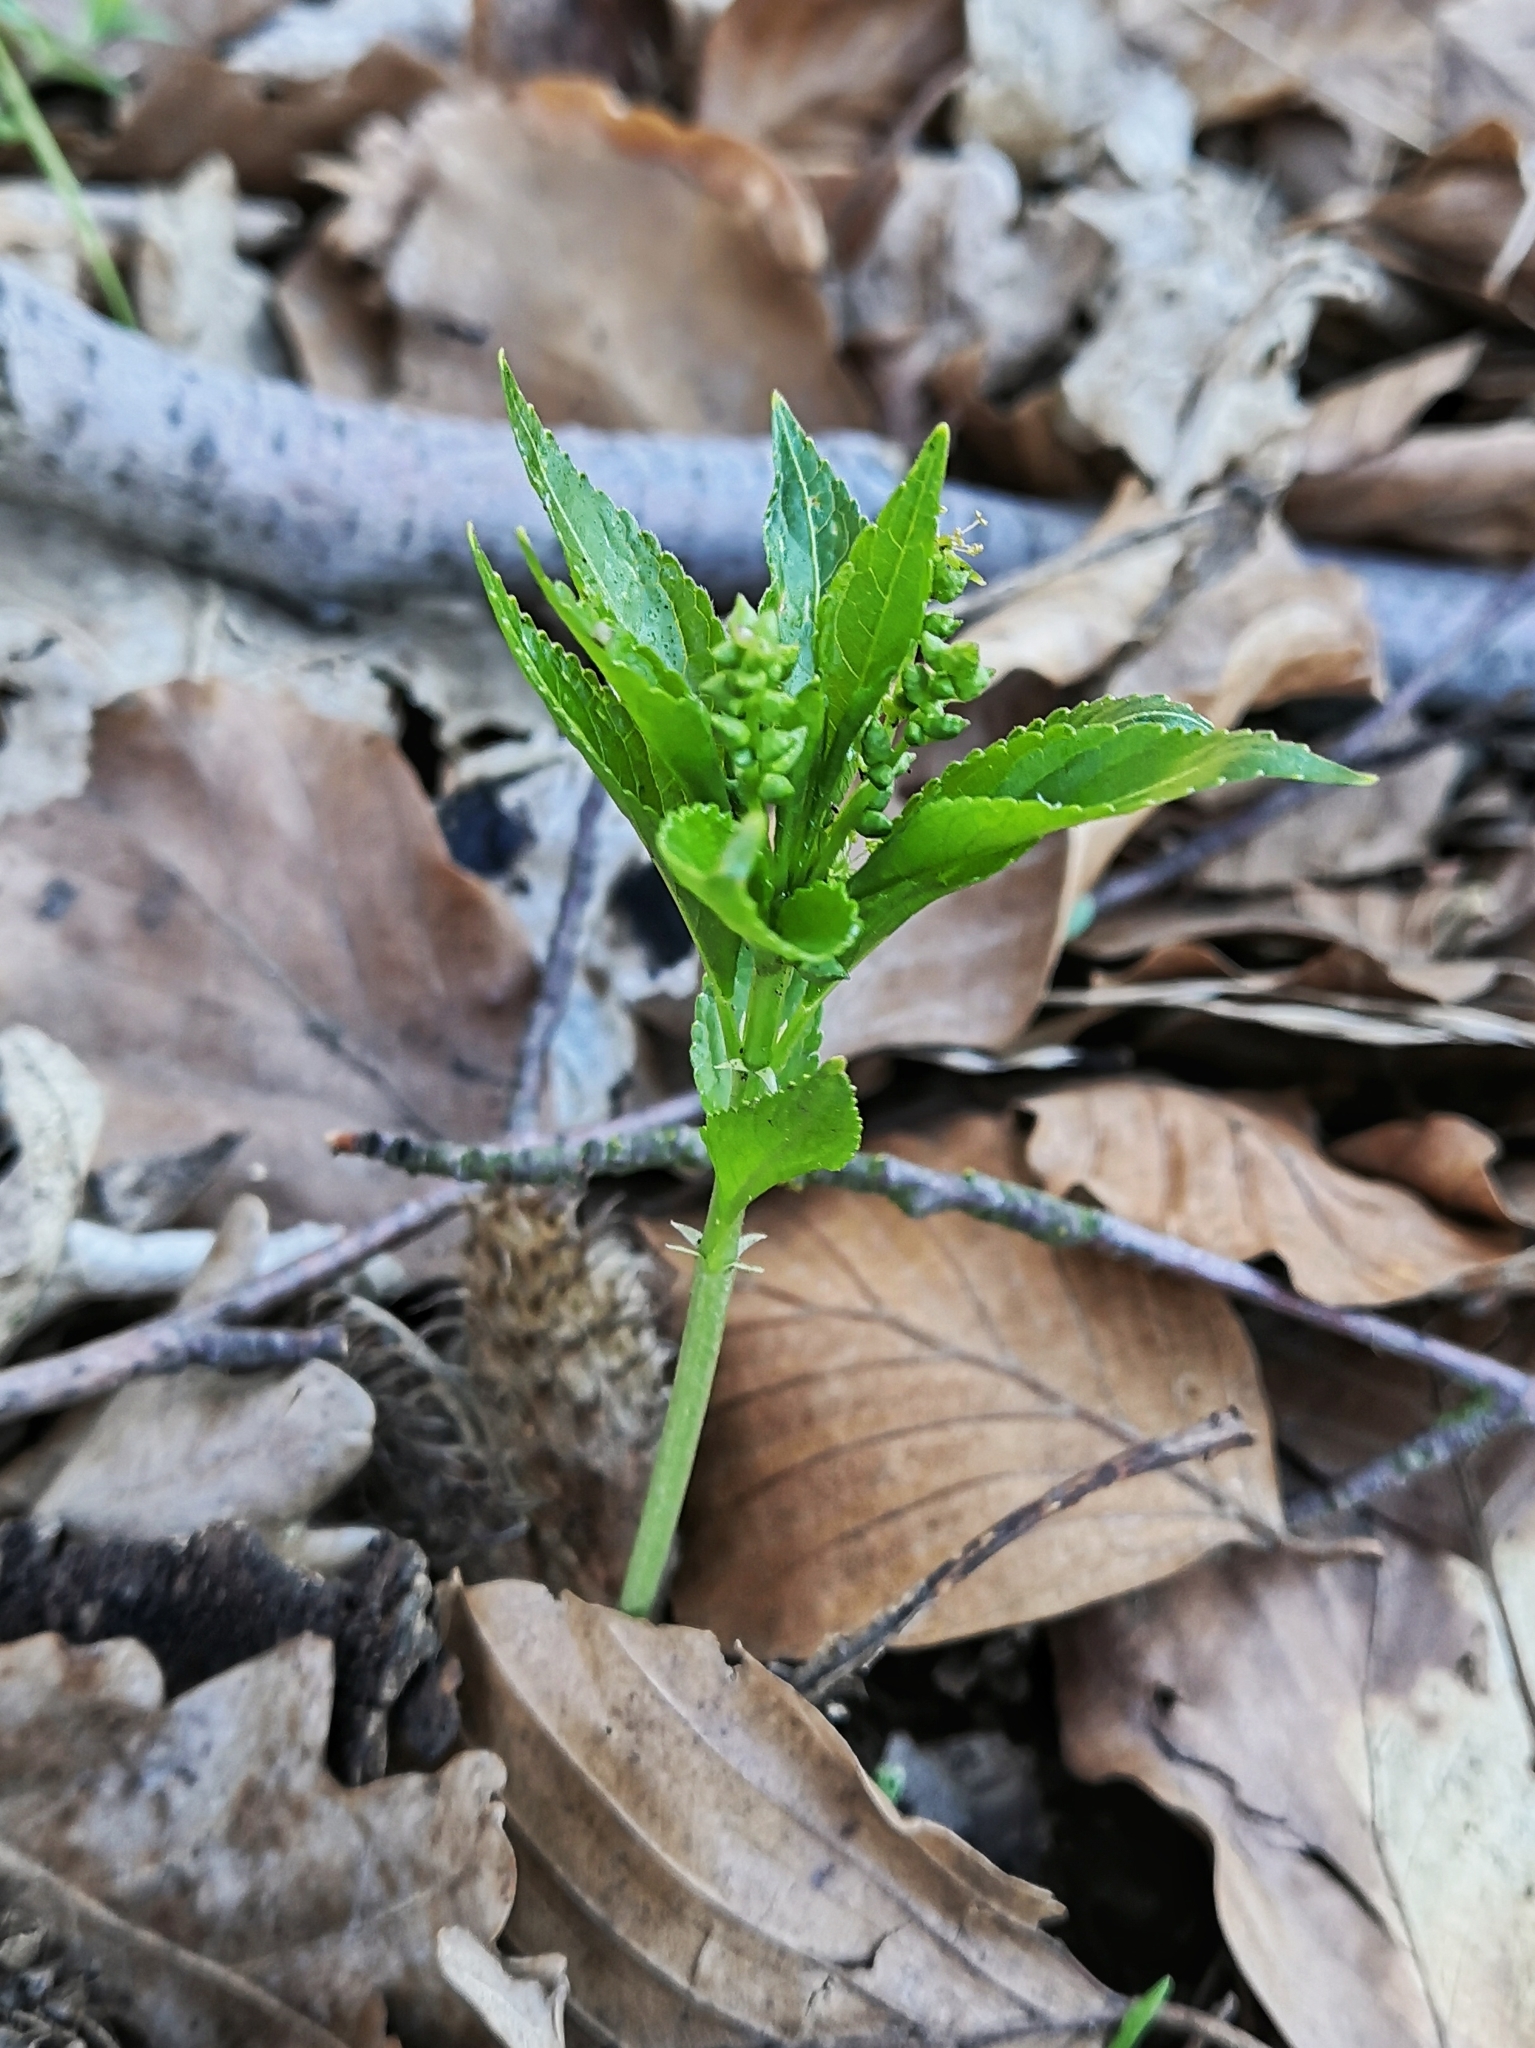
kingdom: Plantae
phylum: Tracheophyta
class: Magnoliopsida
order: Malpighiales
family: Euphorbiaceae
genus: Mercurialis
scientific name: Mercurialis perennis
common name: Dog mercury
